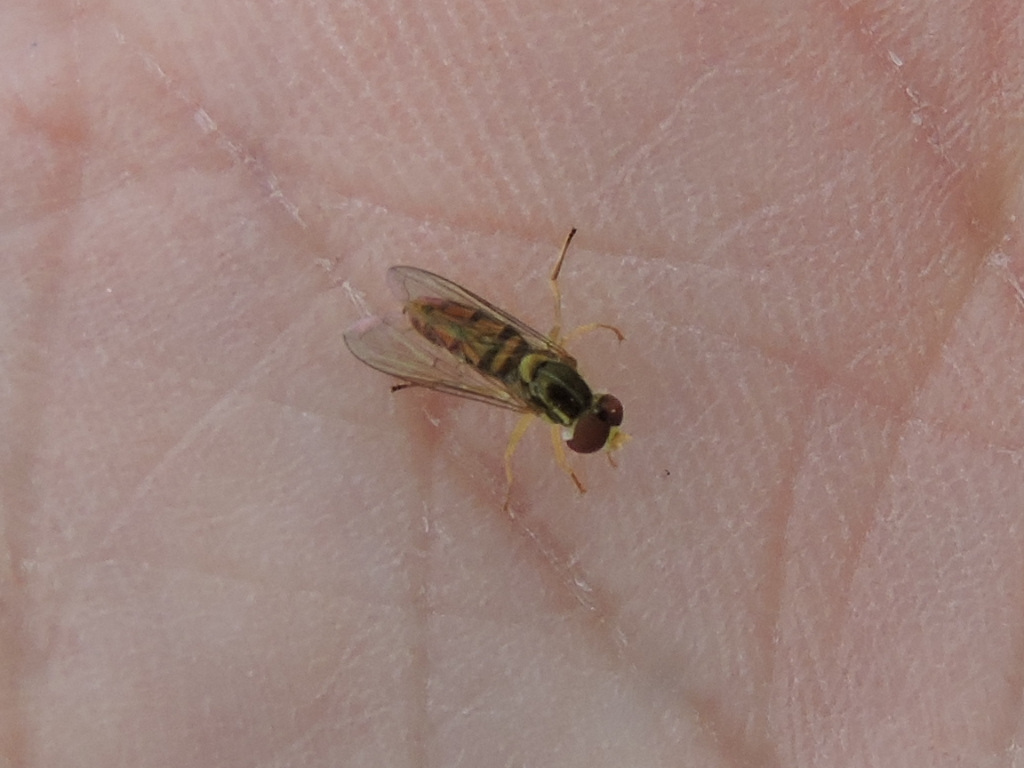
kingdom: Animalia
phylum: Arthropoda
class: Insecta
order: Diptera
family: Syrphidae
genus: Toxomerus
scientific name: Toxomerus marginatus
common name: Syrphid fly
